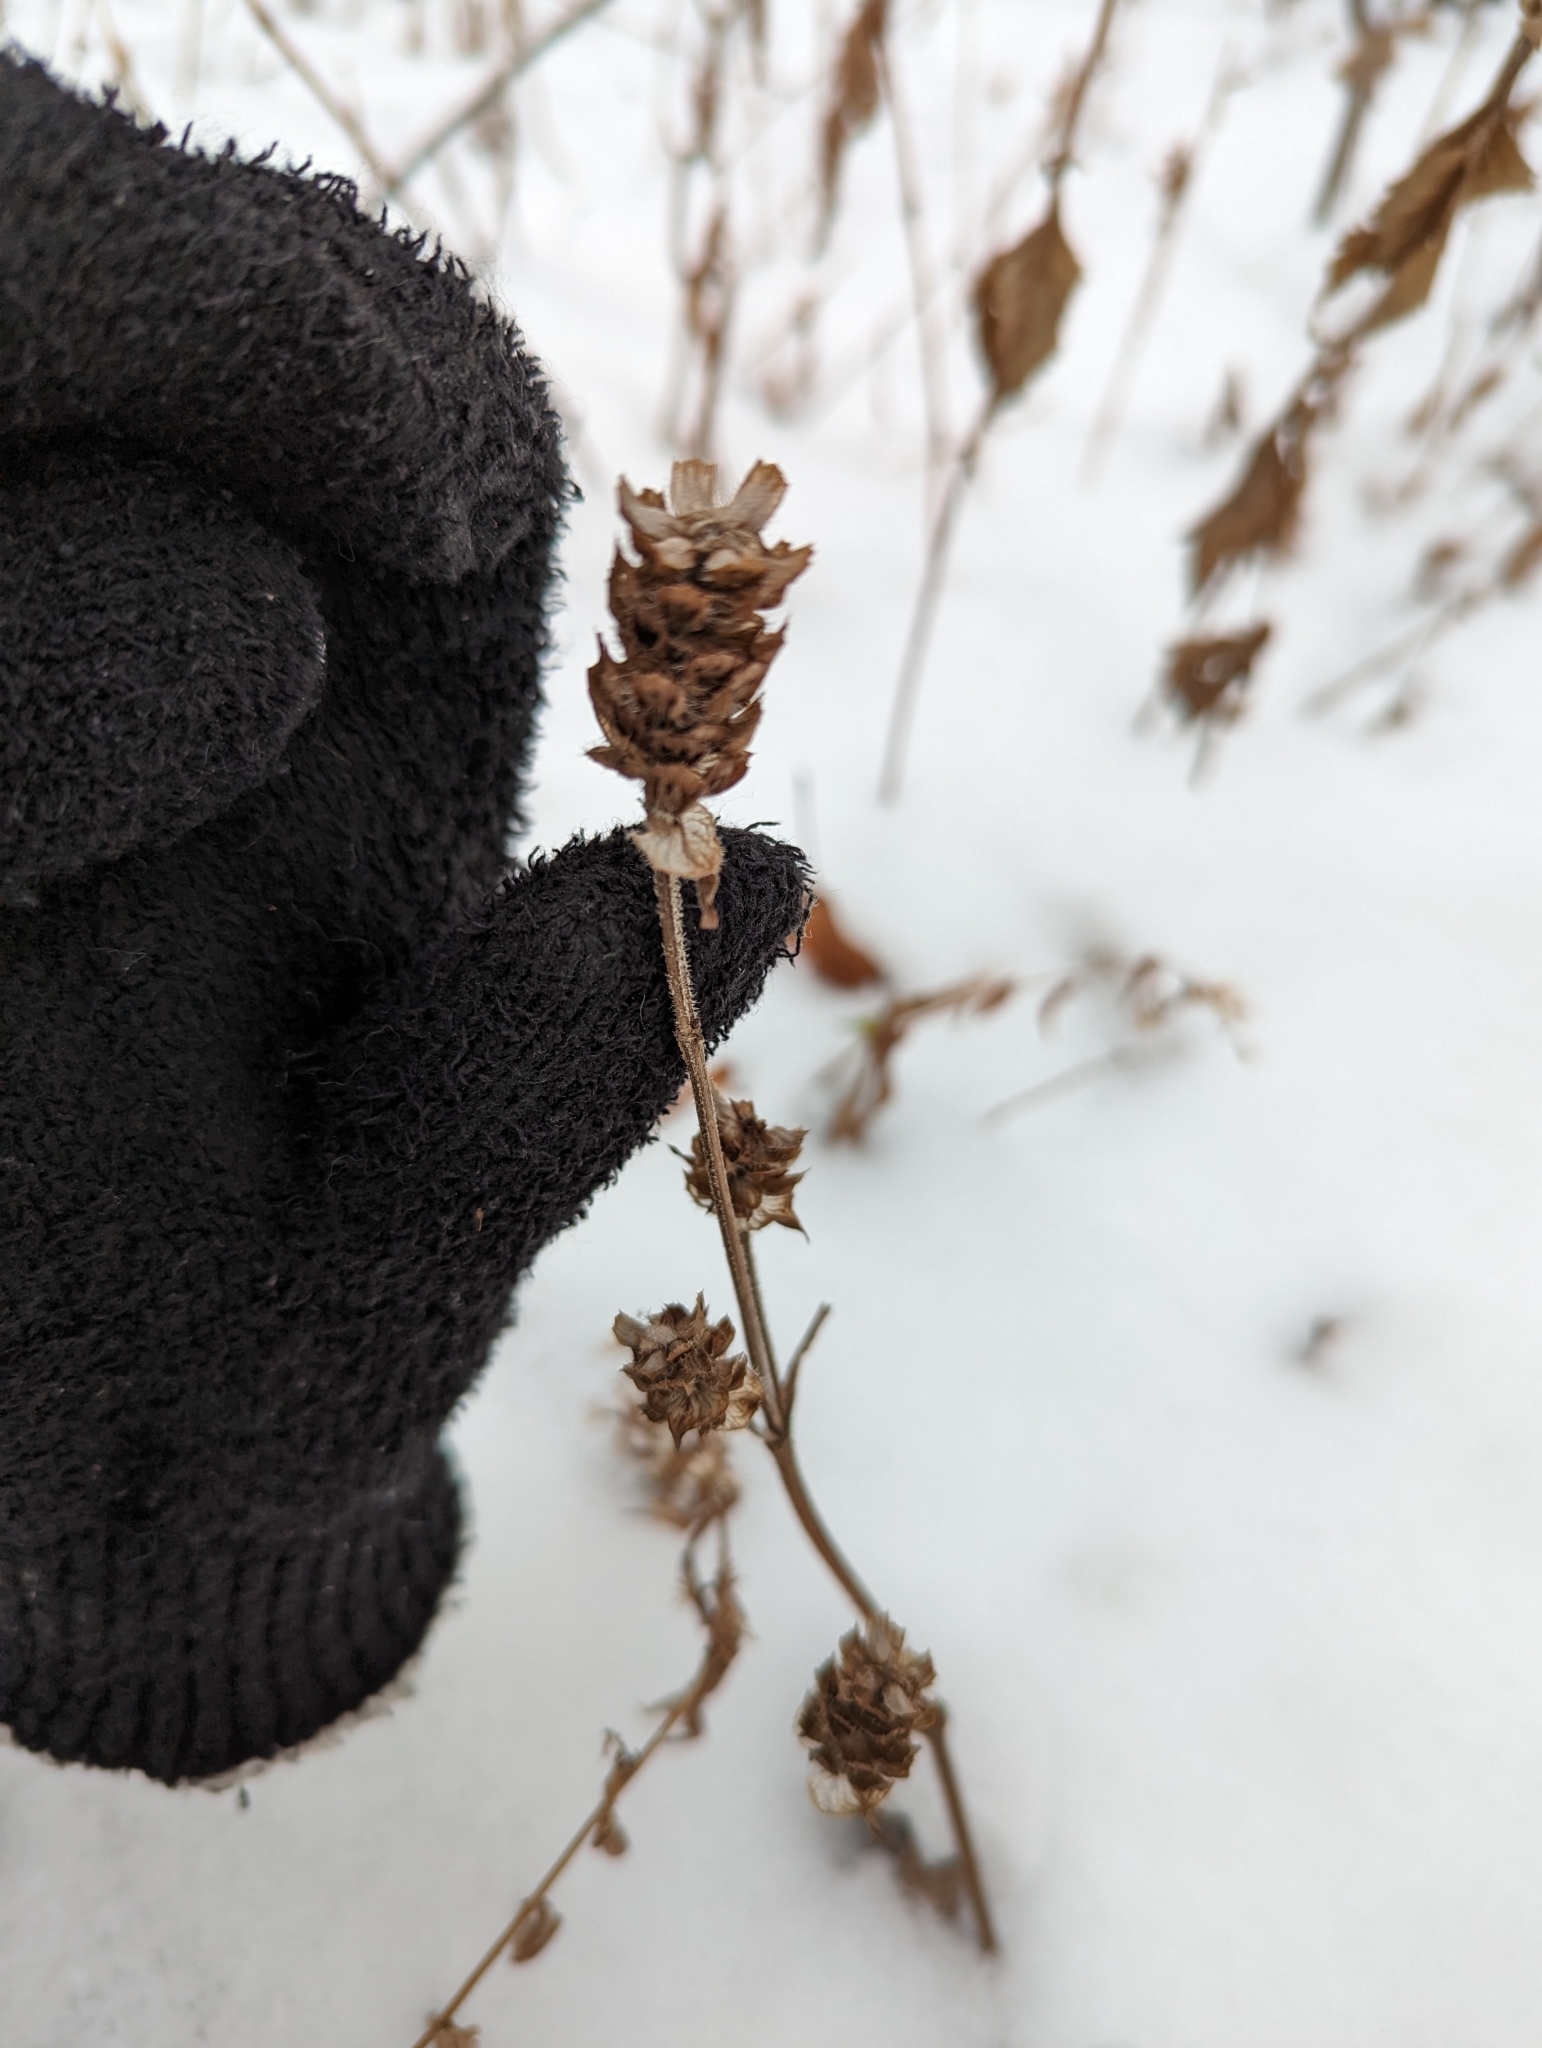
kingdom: Plantae
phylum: Tracheophyta
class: Magnoliopsida
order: Lamiales
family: Lamiaceae
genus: Prunella
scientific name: Prunella vulgaris
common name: Heal-all
